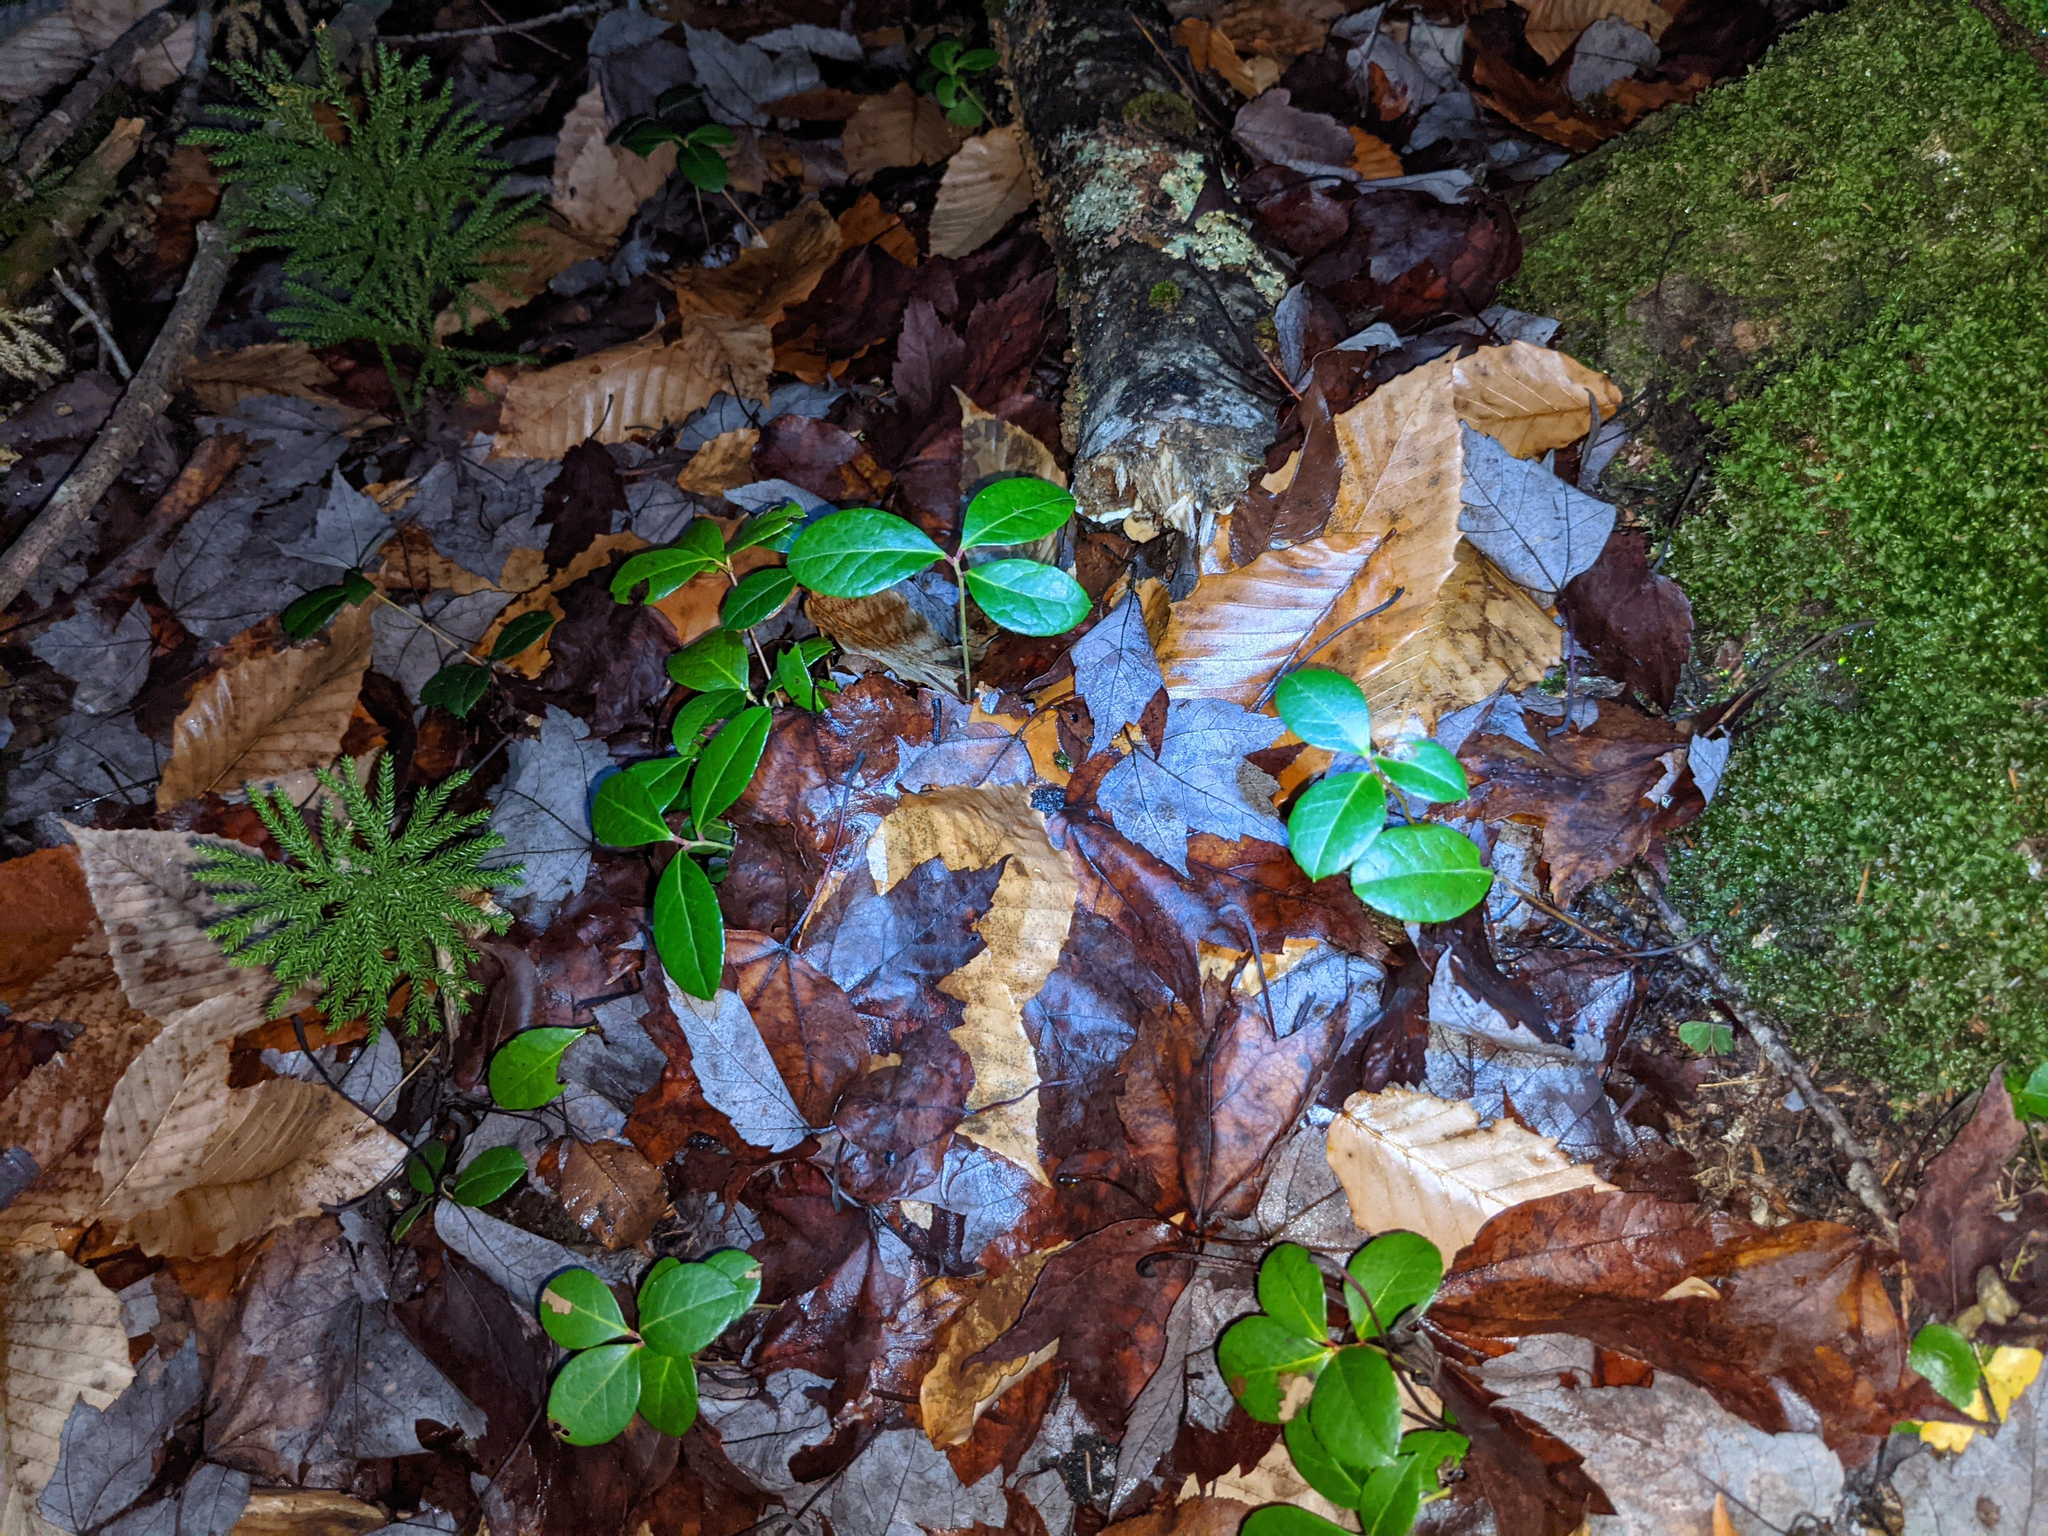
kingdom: Plantae
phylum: Tracheophyta
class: Magnoliopsida
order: Ericales
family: Ericaceae
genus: Gaultheria
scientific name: Gaultheria procumbens
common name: Checkerberry
